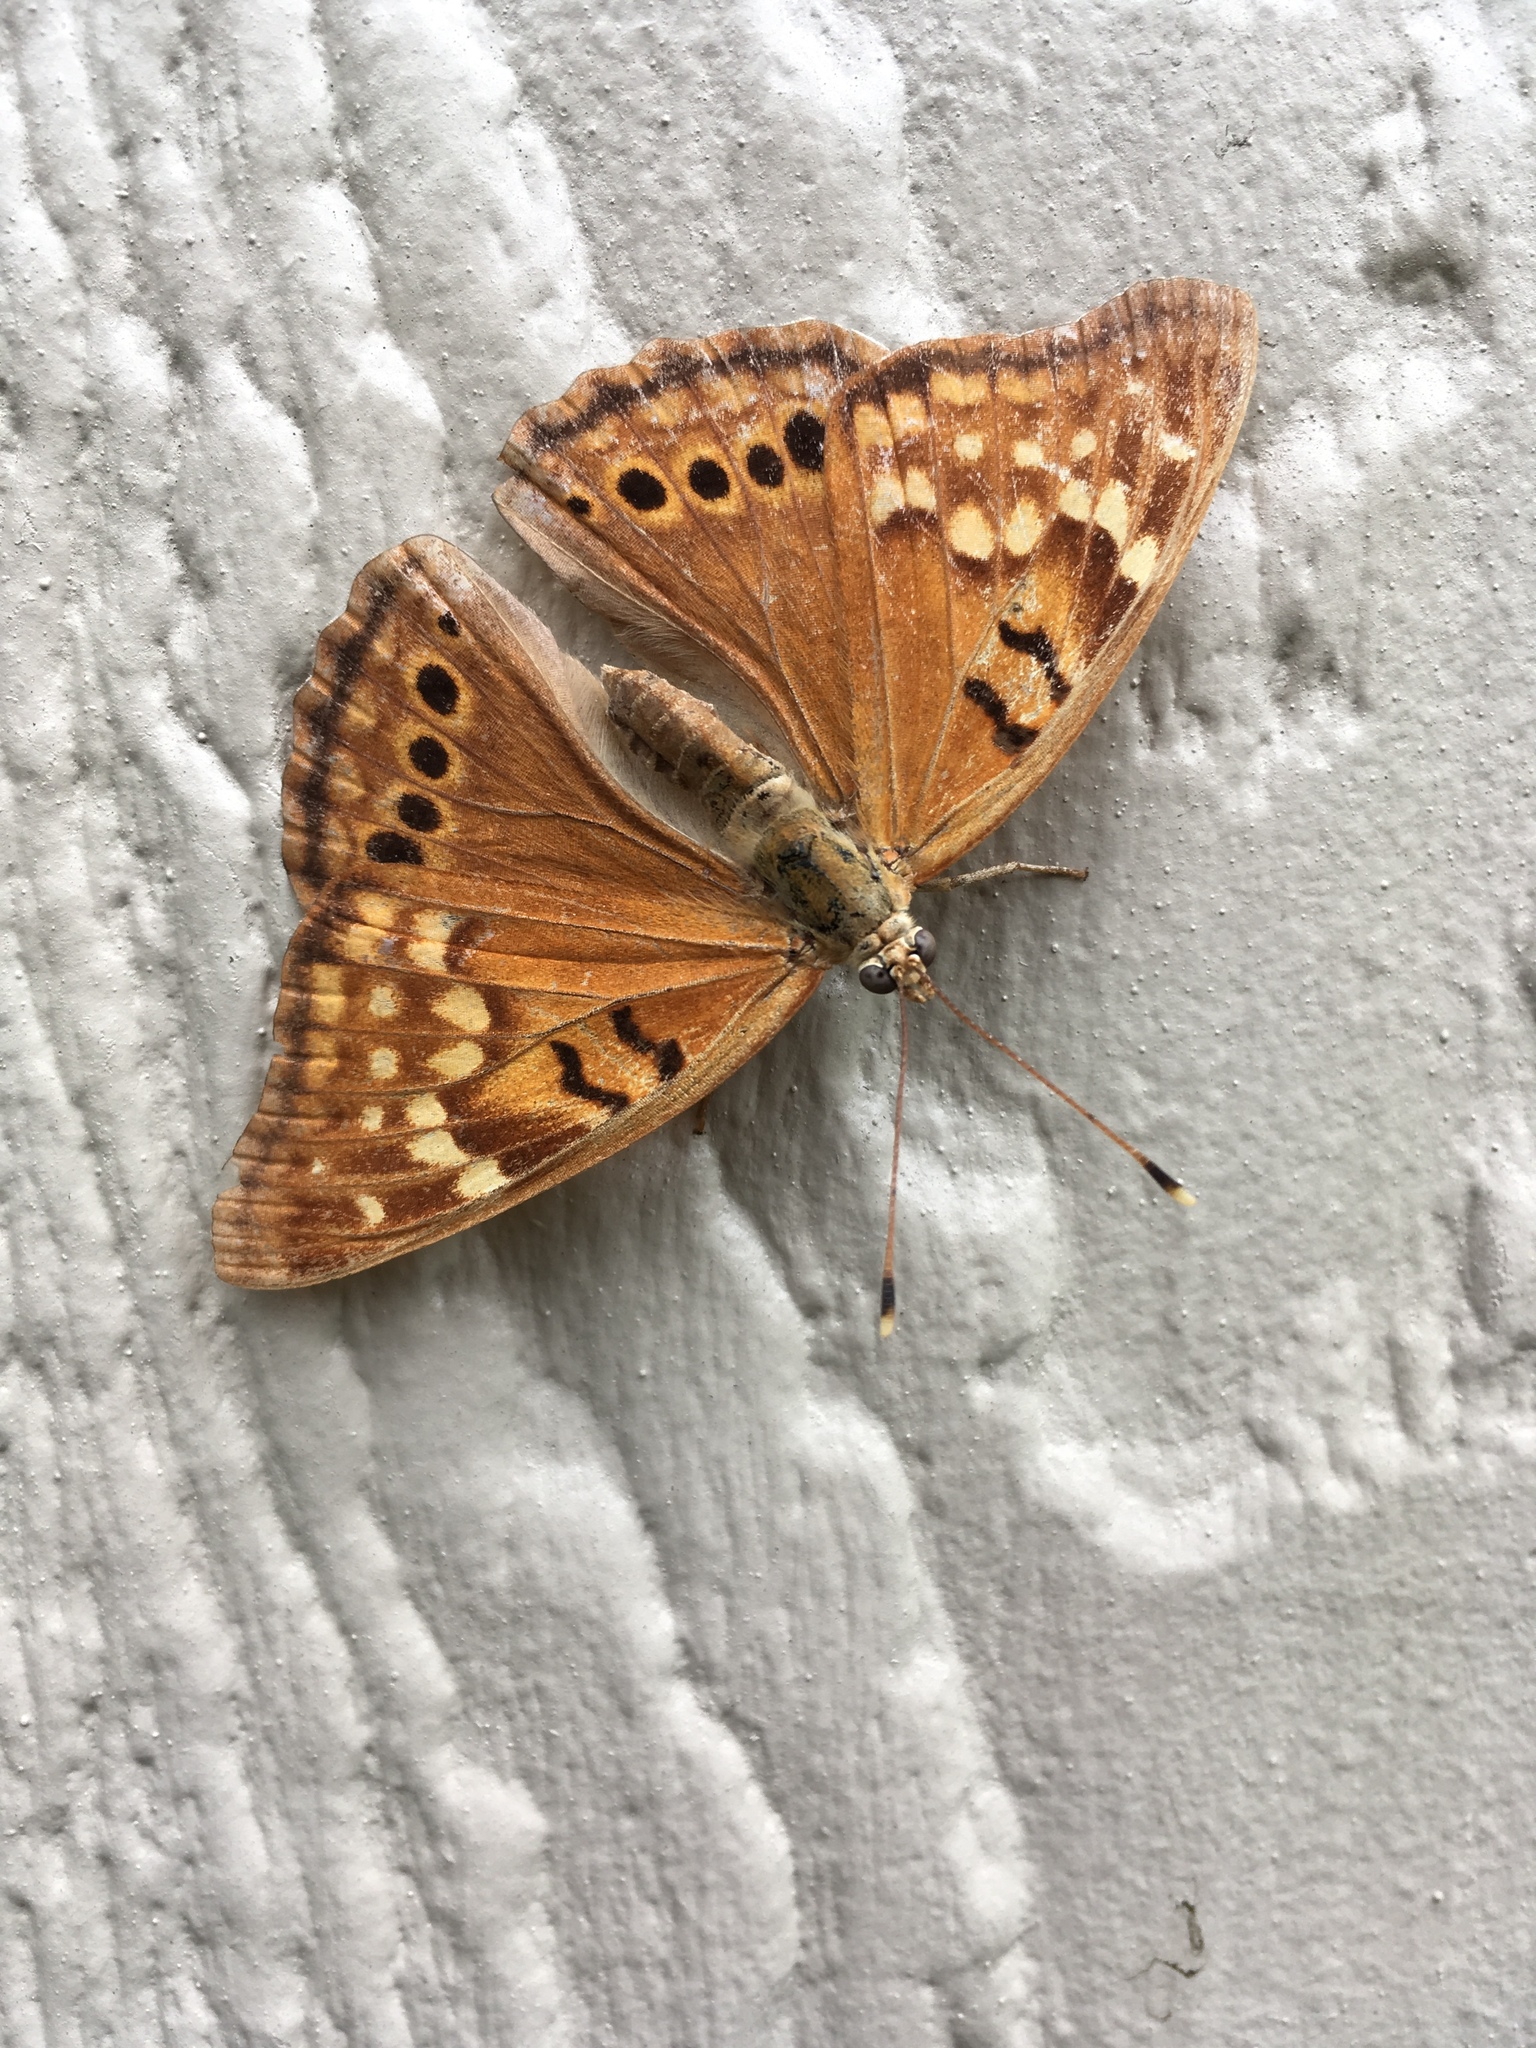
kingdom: Animalia
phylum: Arthropoda
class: Insecta
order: Lepidoptera
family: Nymphalidae
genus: Asterocampa
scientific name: Asterocampa clyton
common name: Tawny emperor
